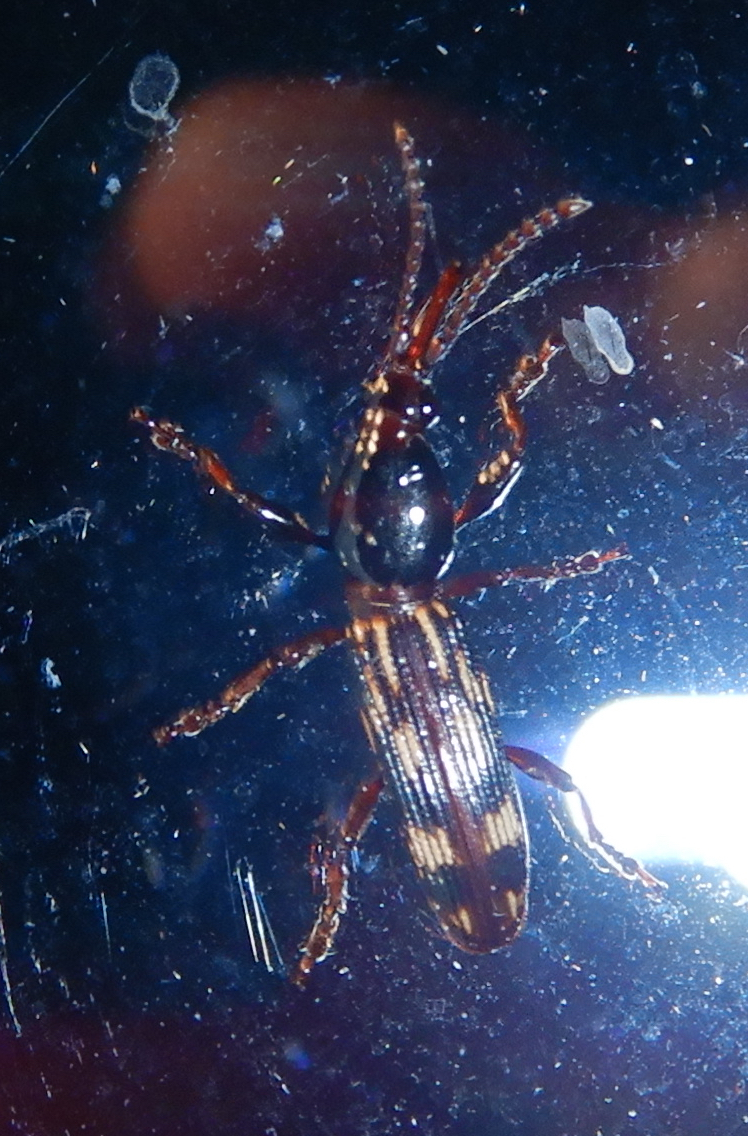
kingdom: Animalia
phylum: Arthropoda
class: Insecta
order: Coleoptera
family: Brentidae
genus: Arrenodes
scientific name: Arrenodes minutus
